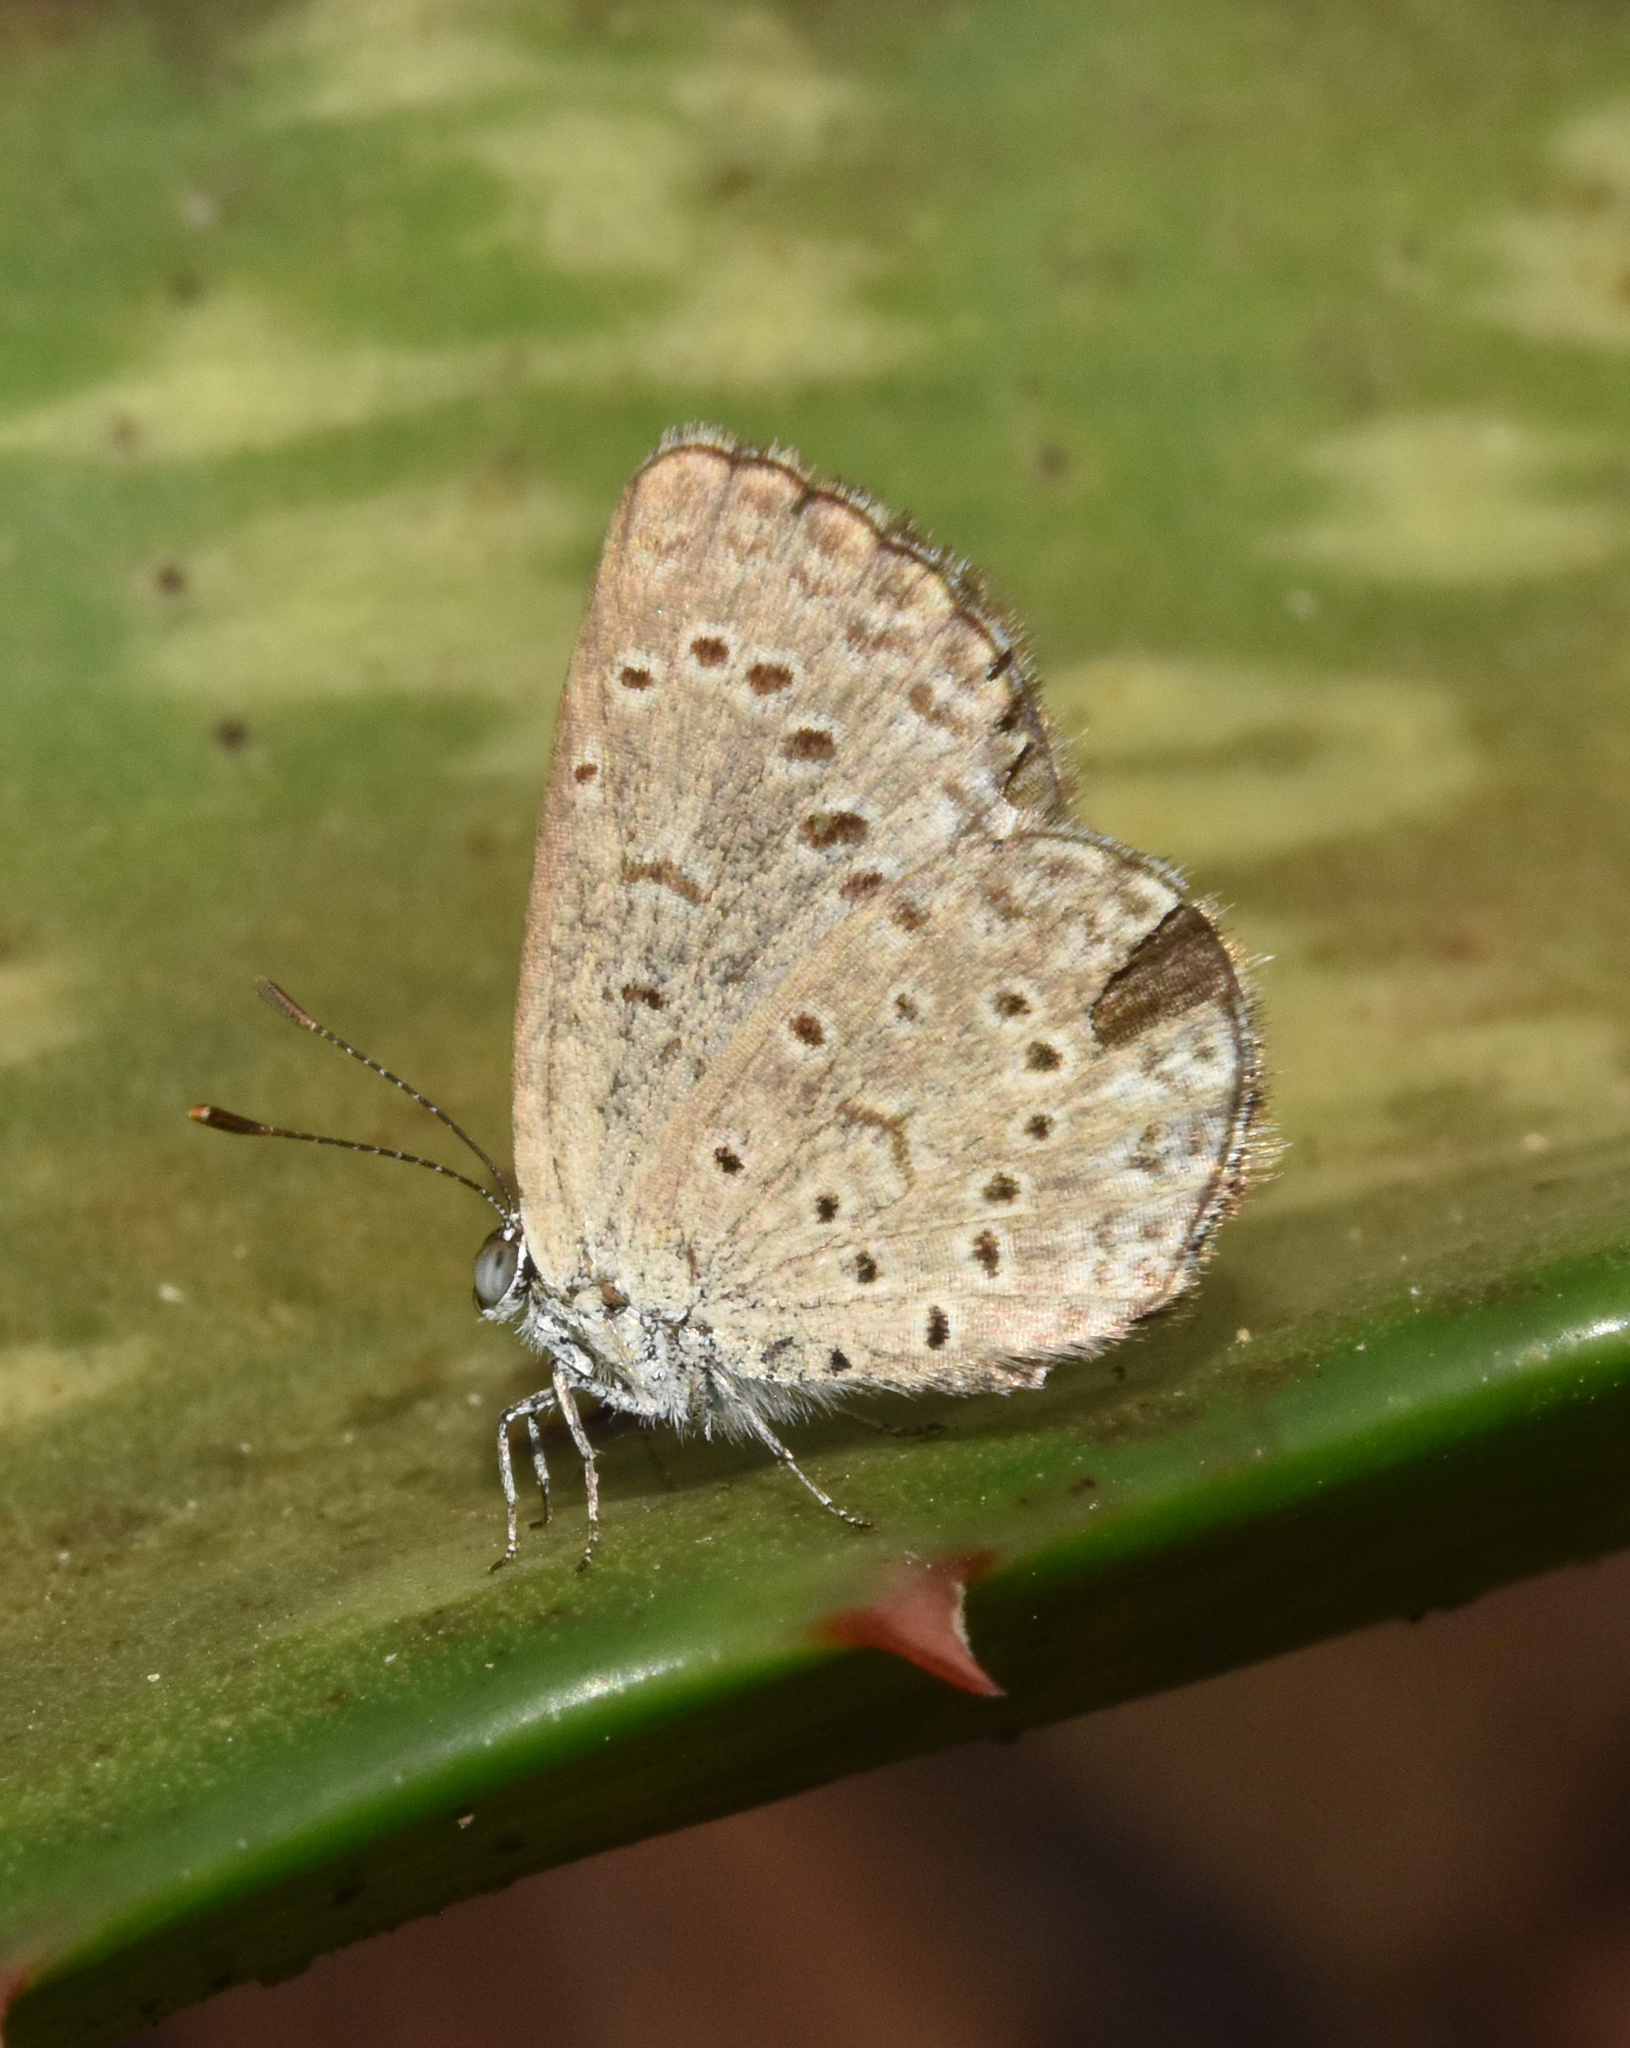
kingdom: Animalia
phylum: Arthropoda
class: Insecta
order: Lepidoptera
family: Lycaenidae
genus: Zizeeria
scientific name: Zizeeria knysna
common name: African grass blue
